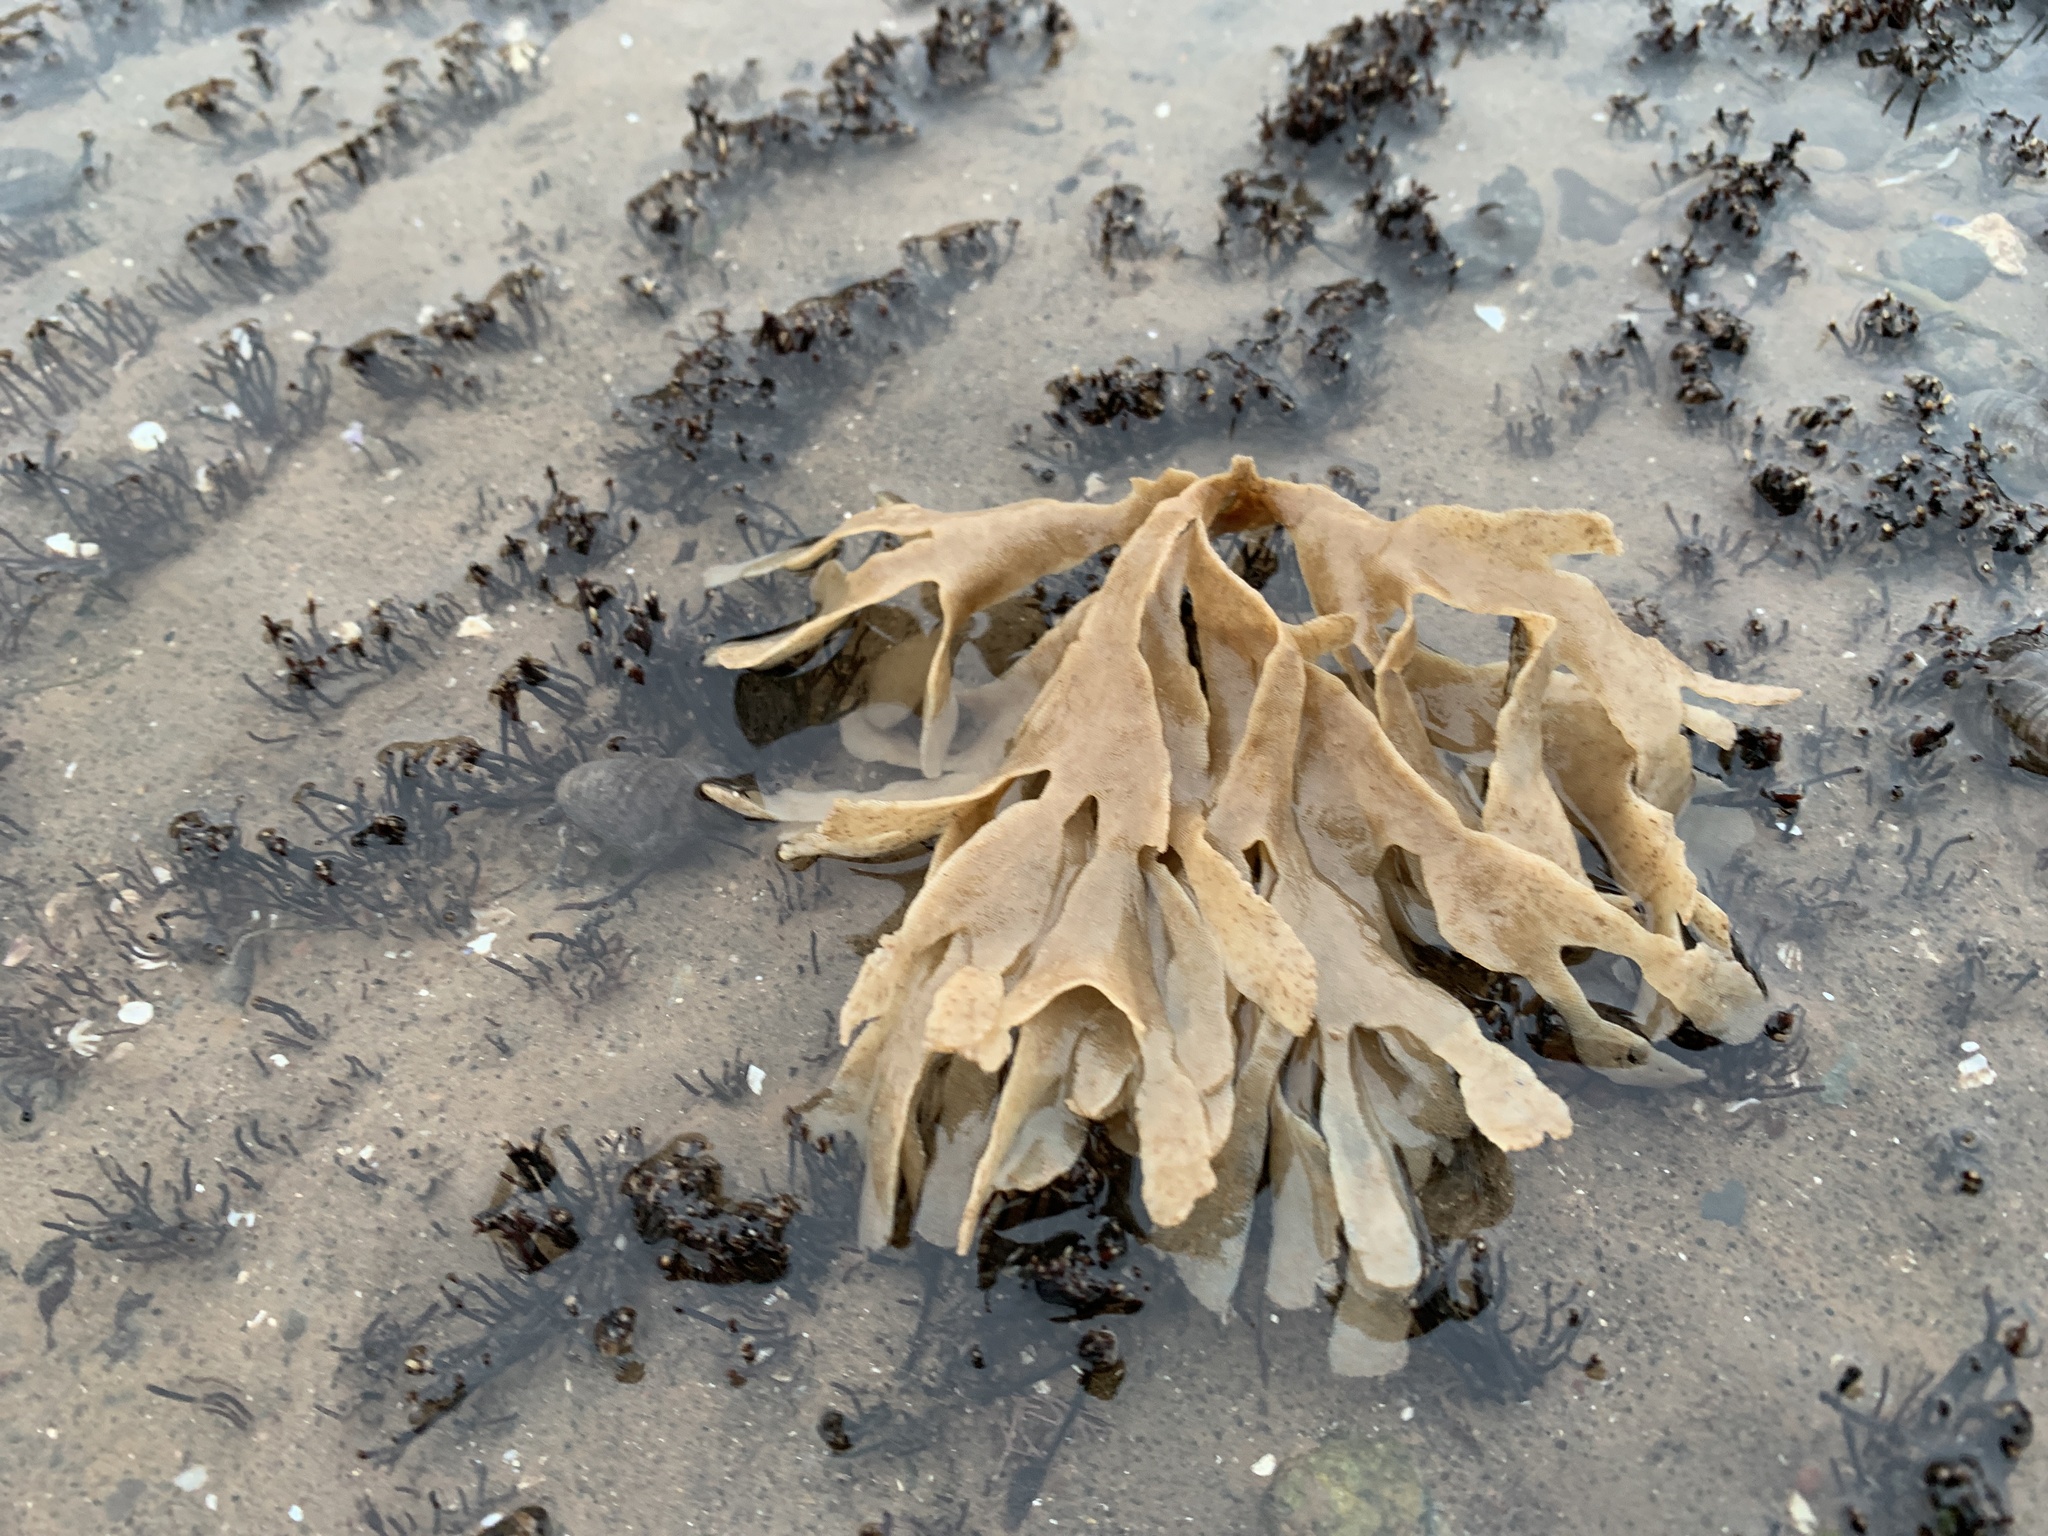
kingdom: Animalia
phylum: Bryozoa
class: Gymnolaemata
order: Cheilostomatida
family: Flustridae
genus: Flustra
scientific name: Flustra foliacea
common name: Hornwrack
